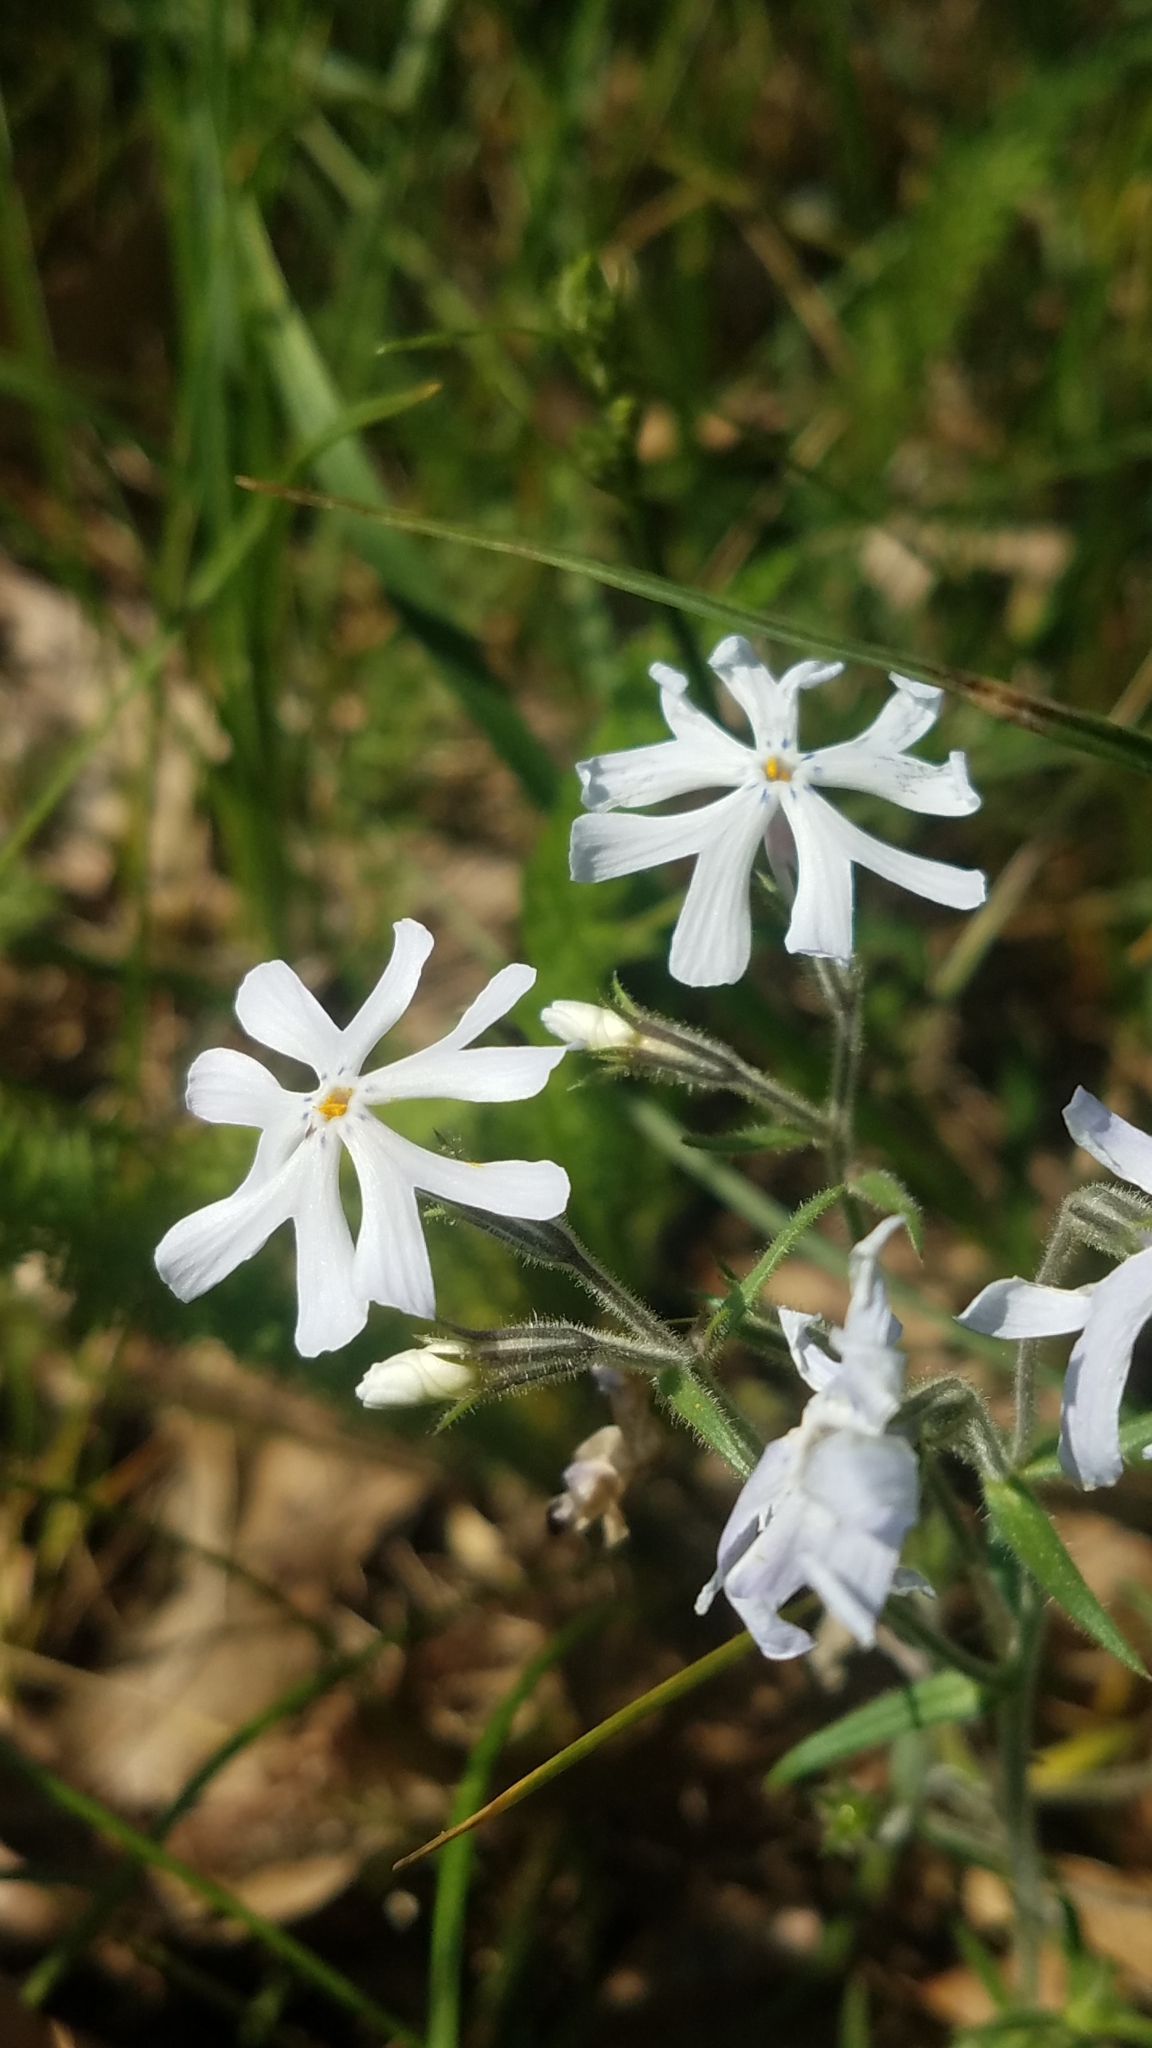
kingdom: Plantae
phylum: Tracheophyta
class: Magnoliopsida
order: Ericales
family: Polemoniaceae
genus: Phlox
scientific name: Phlox bifida
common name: Sand phlox
